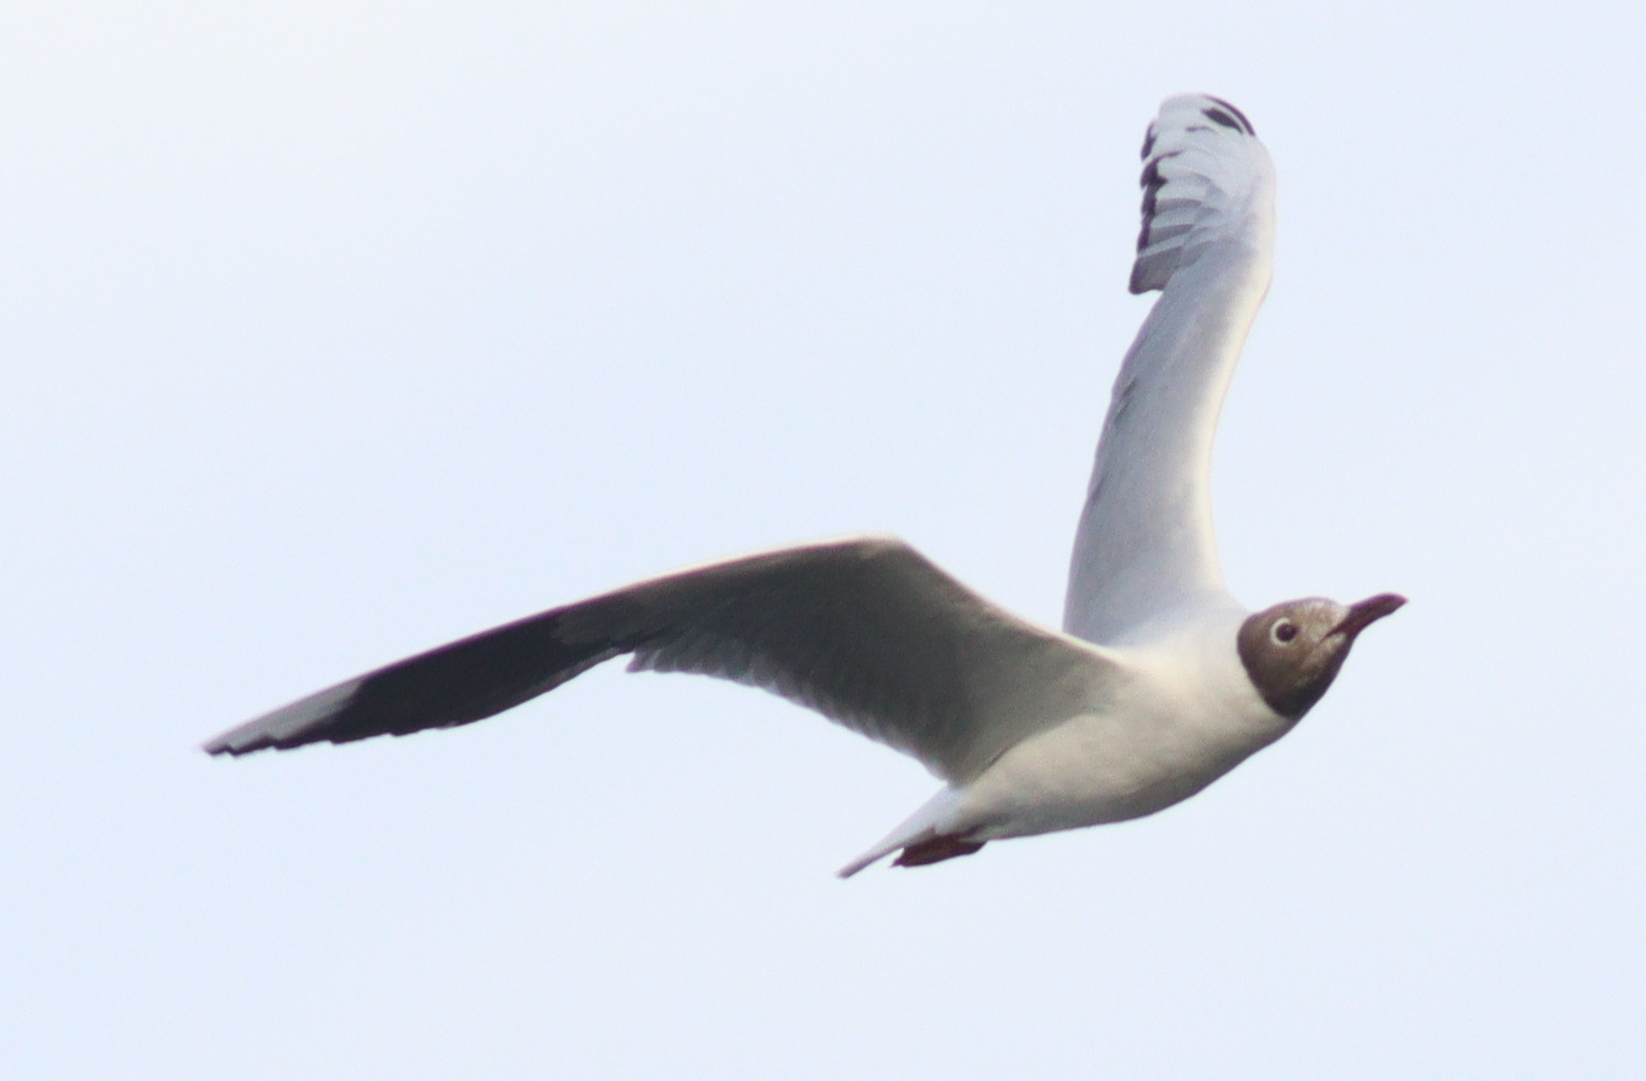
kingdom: Animalia
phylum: Chordata
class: Aves
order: Charadriiformes
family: Laridae
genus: Chroicocephalus
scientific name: Chroicocephalus maculipennis
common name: Brown-hooded gull
